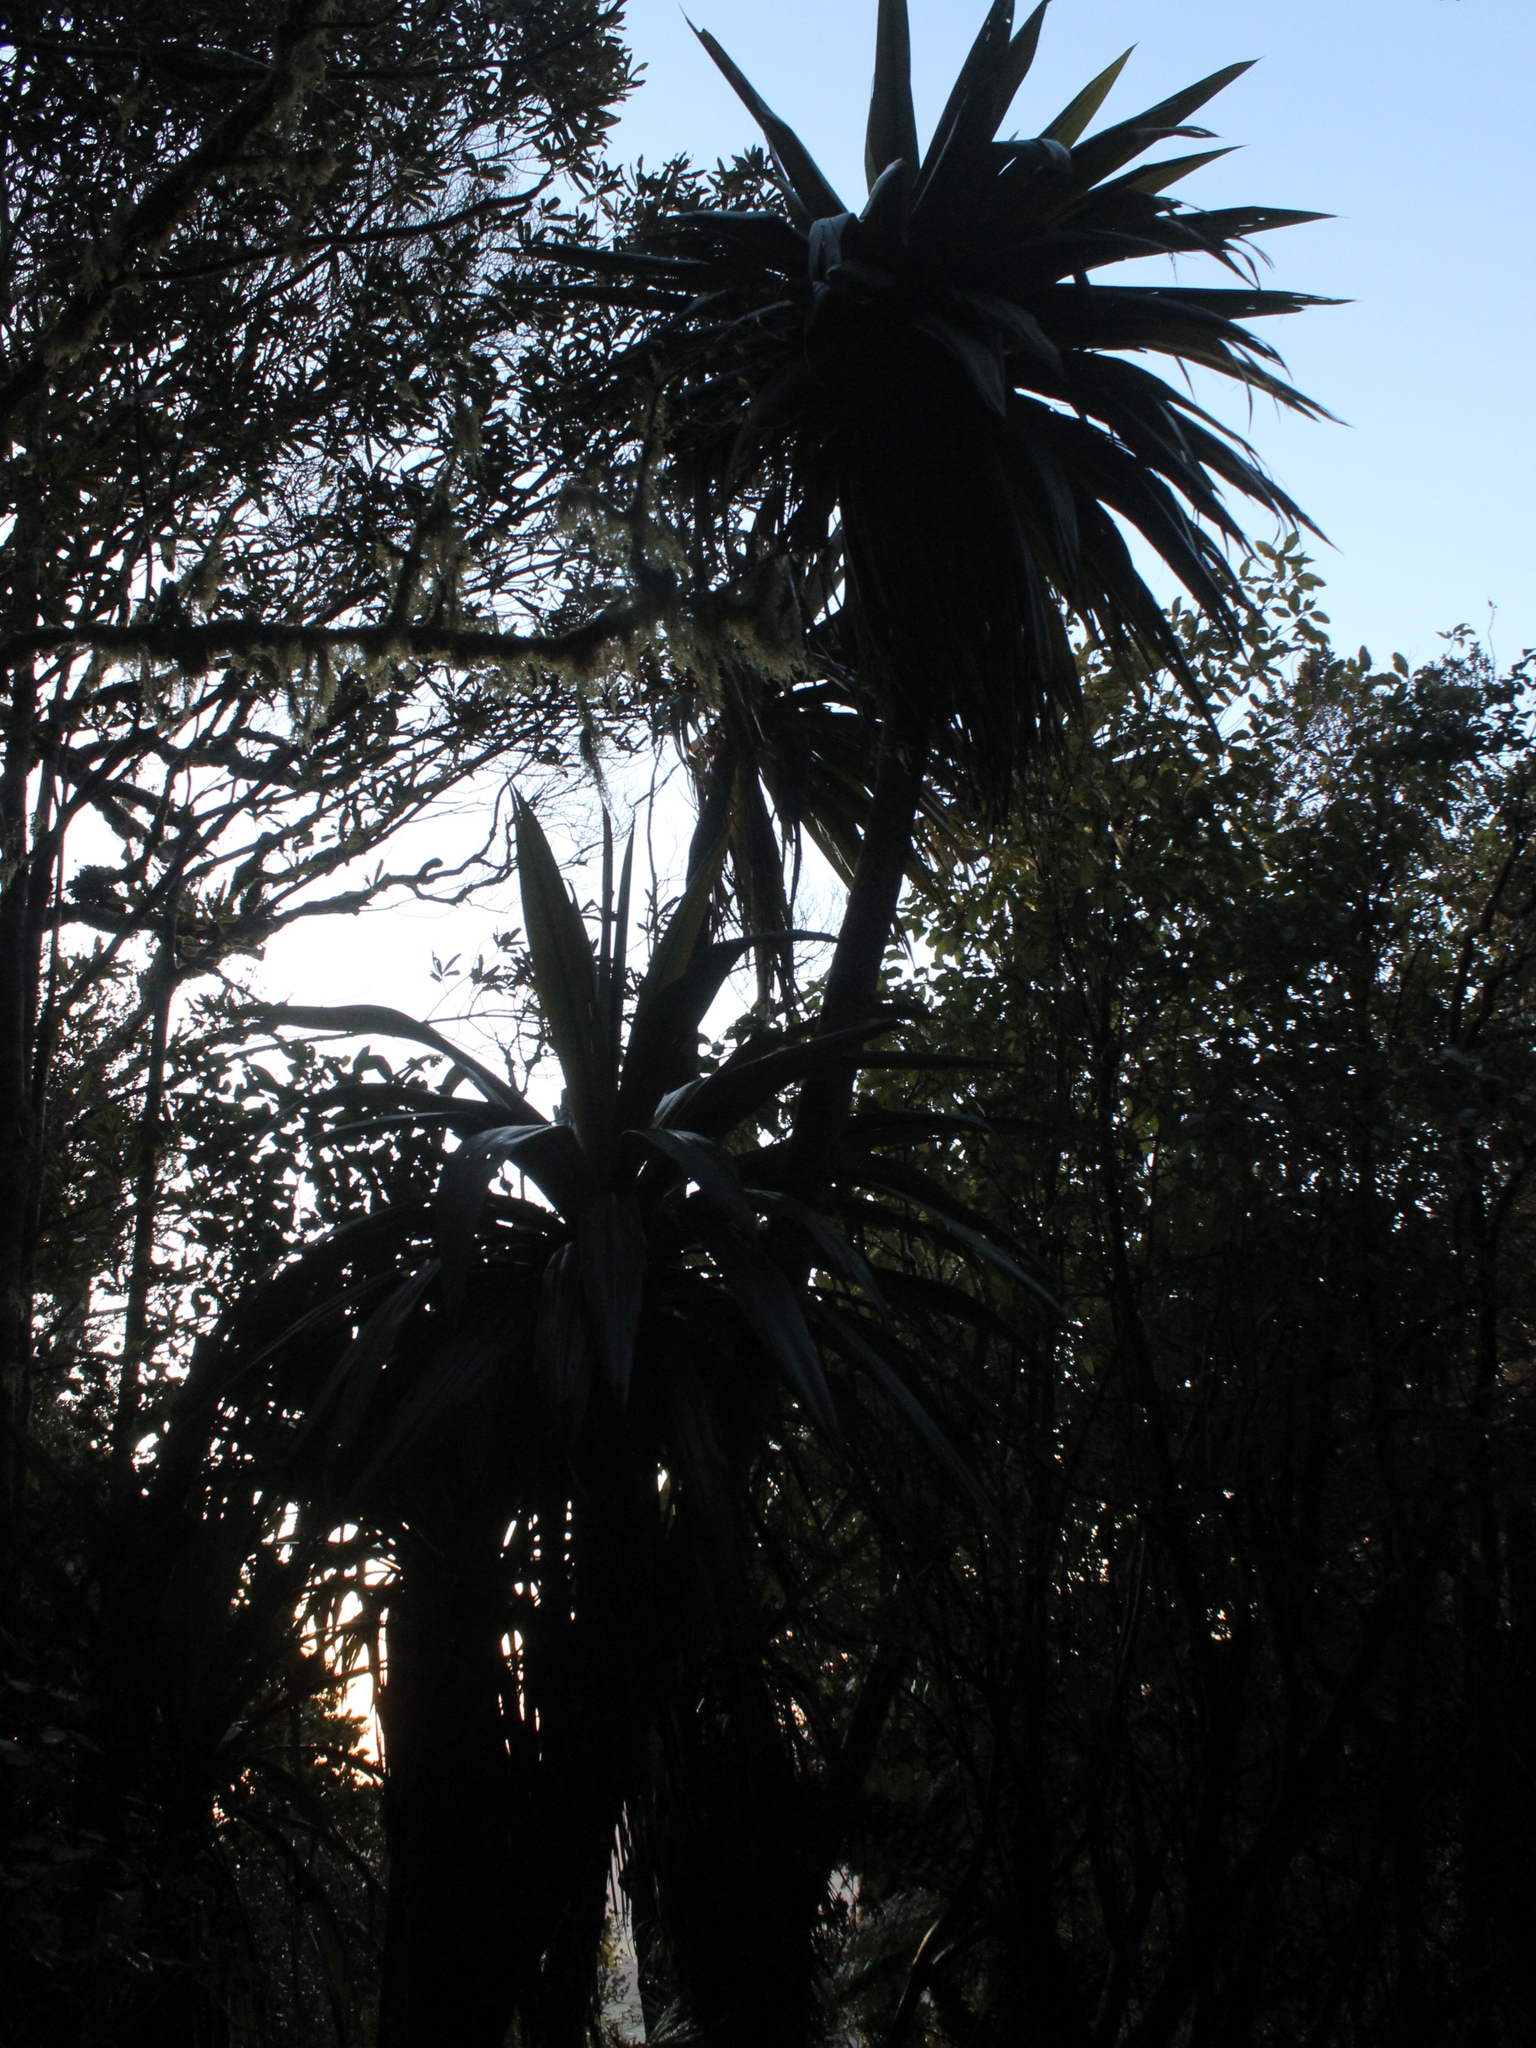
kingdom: Plantae
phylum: Tracheophyta
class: Liliopsida
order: Asparagales
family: Asparagaceae
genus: Cordyline
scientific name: Cordyline indivisa
